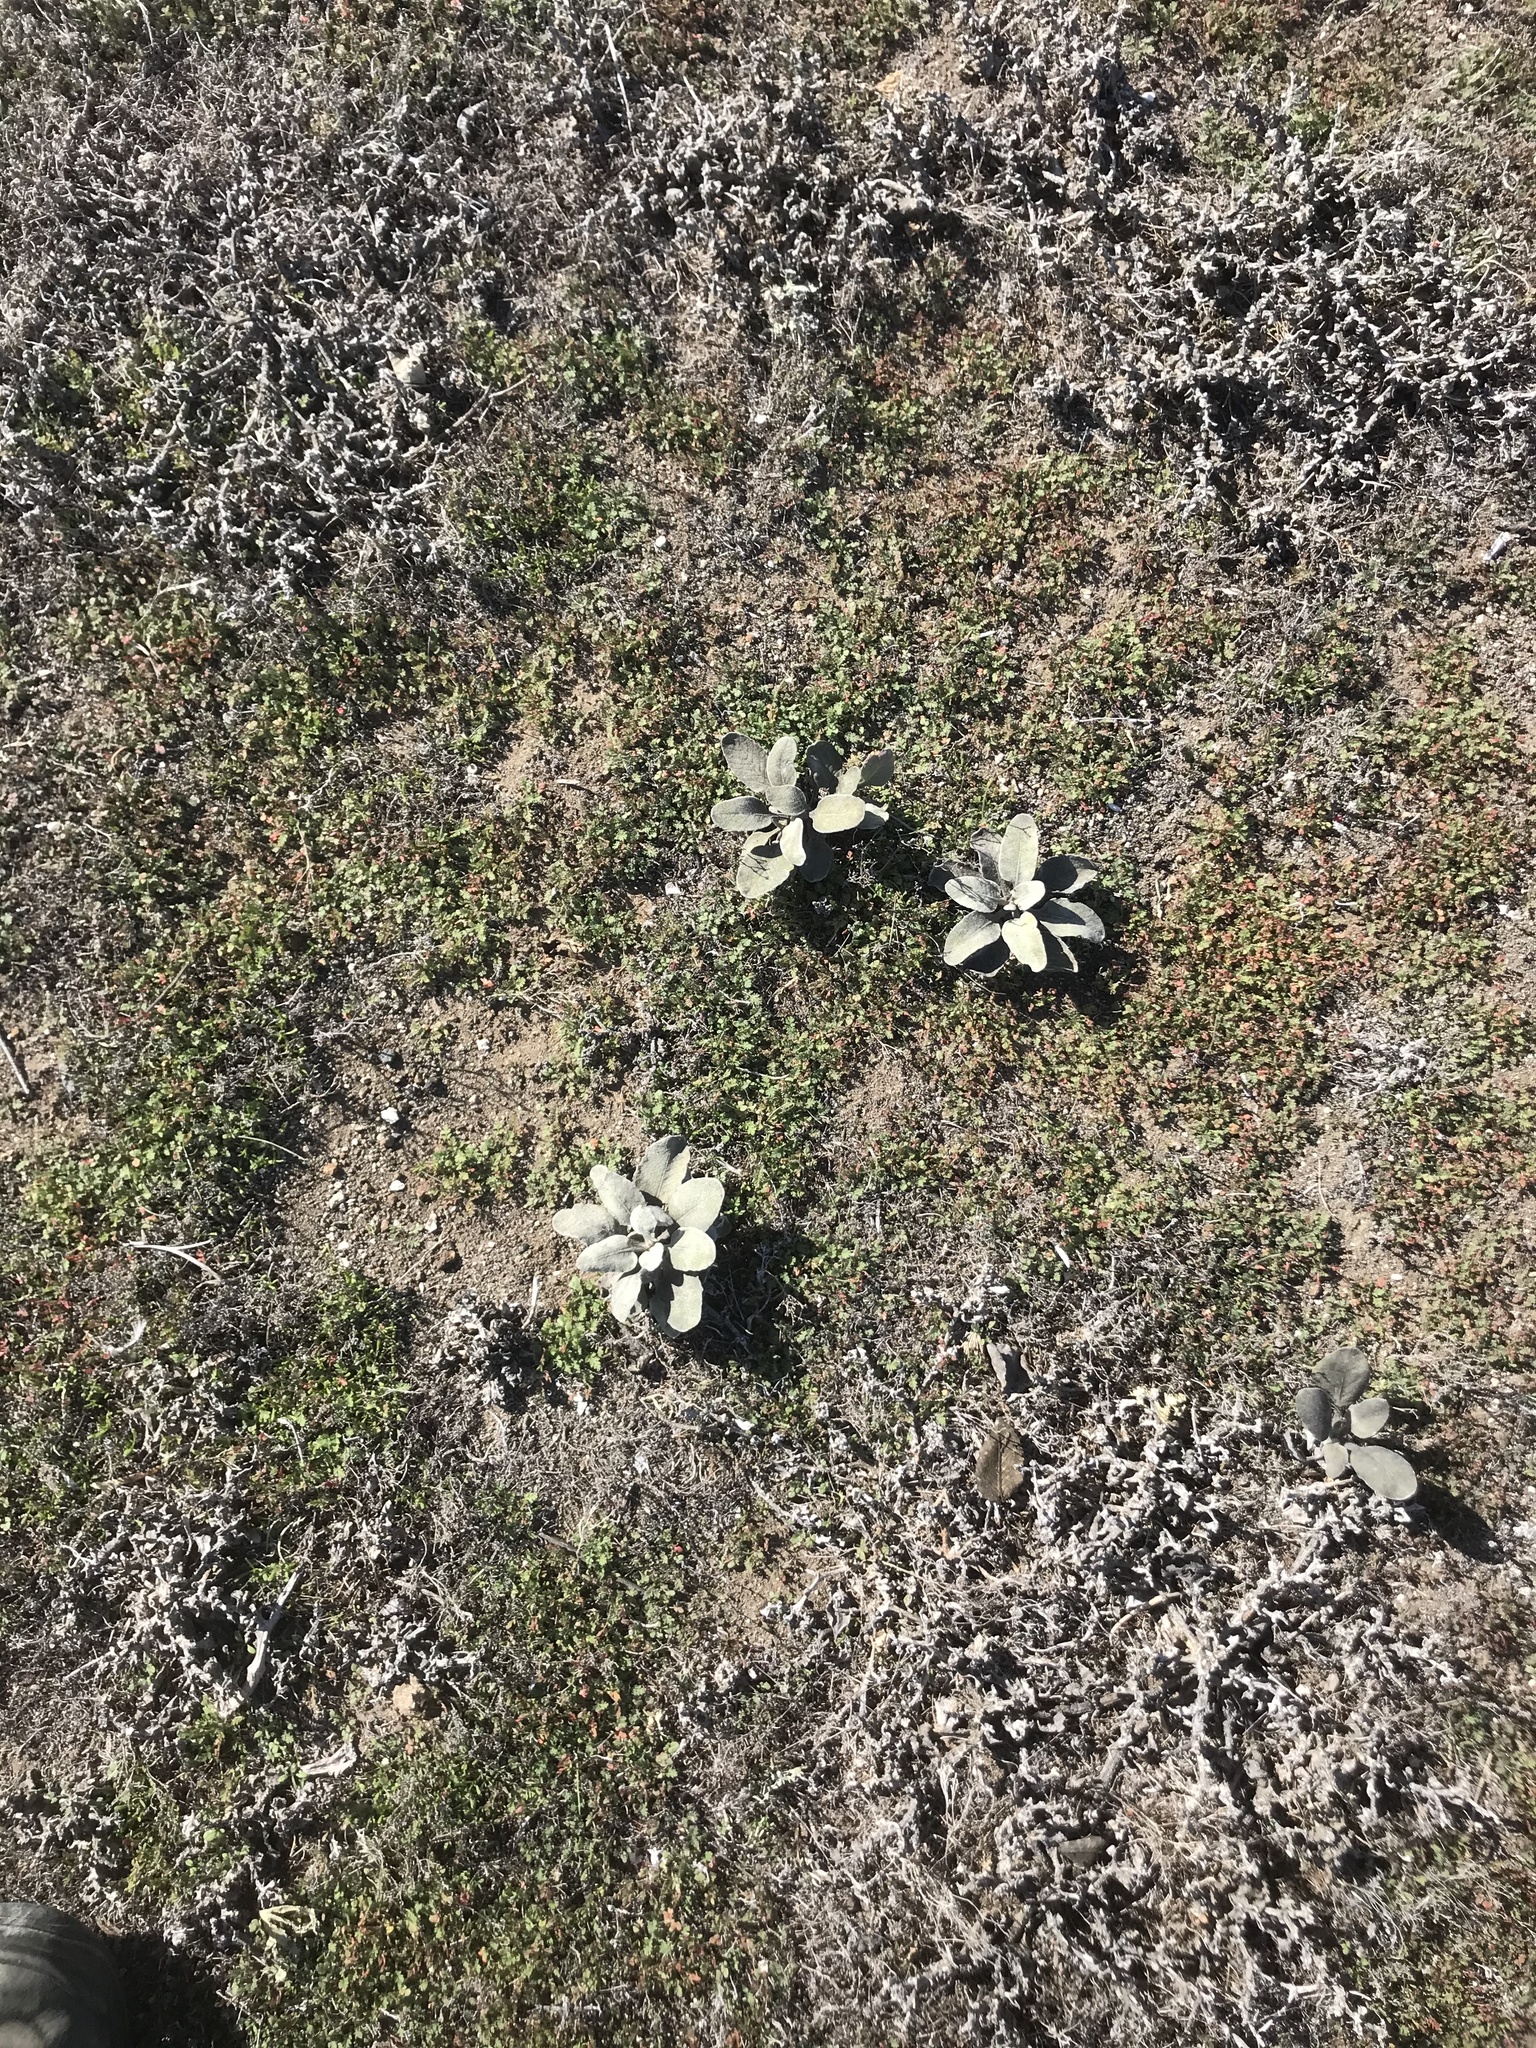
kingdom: Plantae
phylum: Tracheophyta
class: Magnoliopsida
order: Caryophyllales
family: Polygonaceae
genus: Eriogonum
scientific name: Eriogonum giganteum
